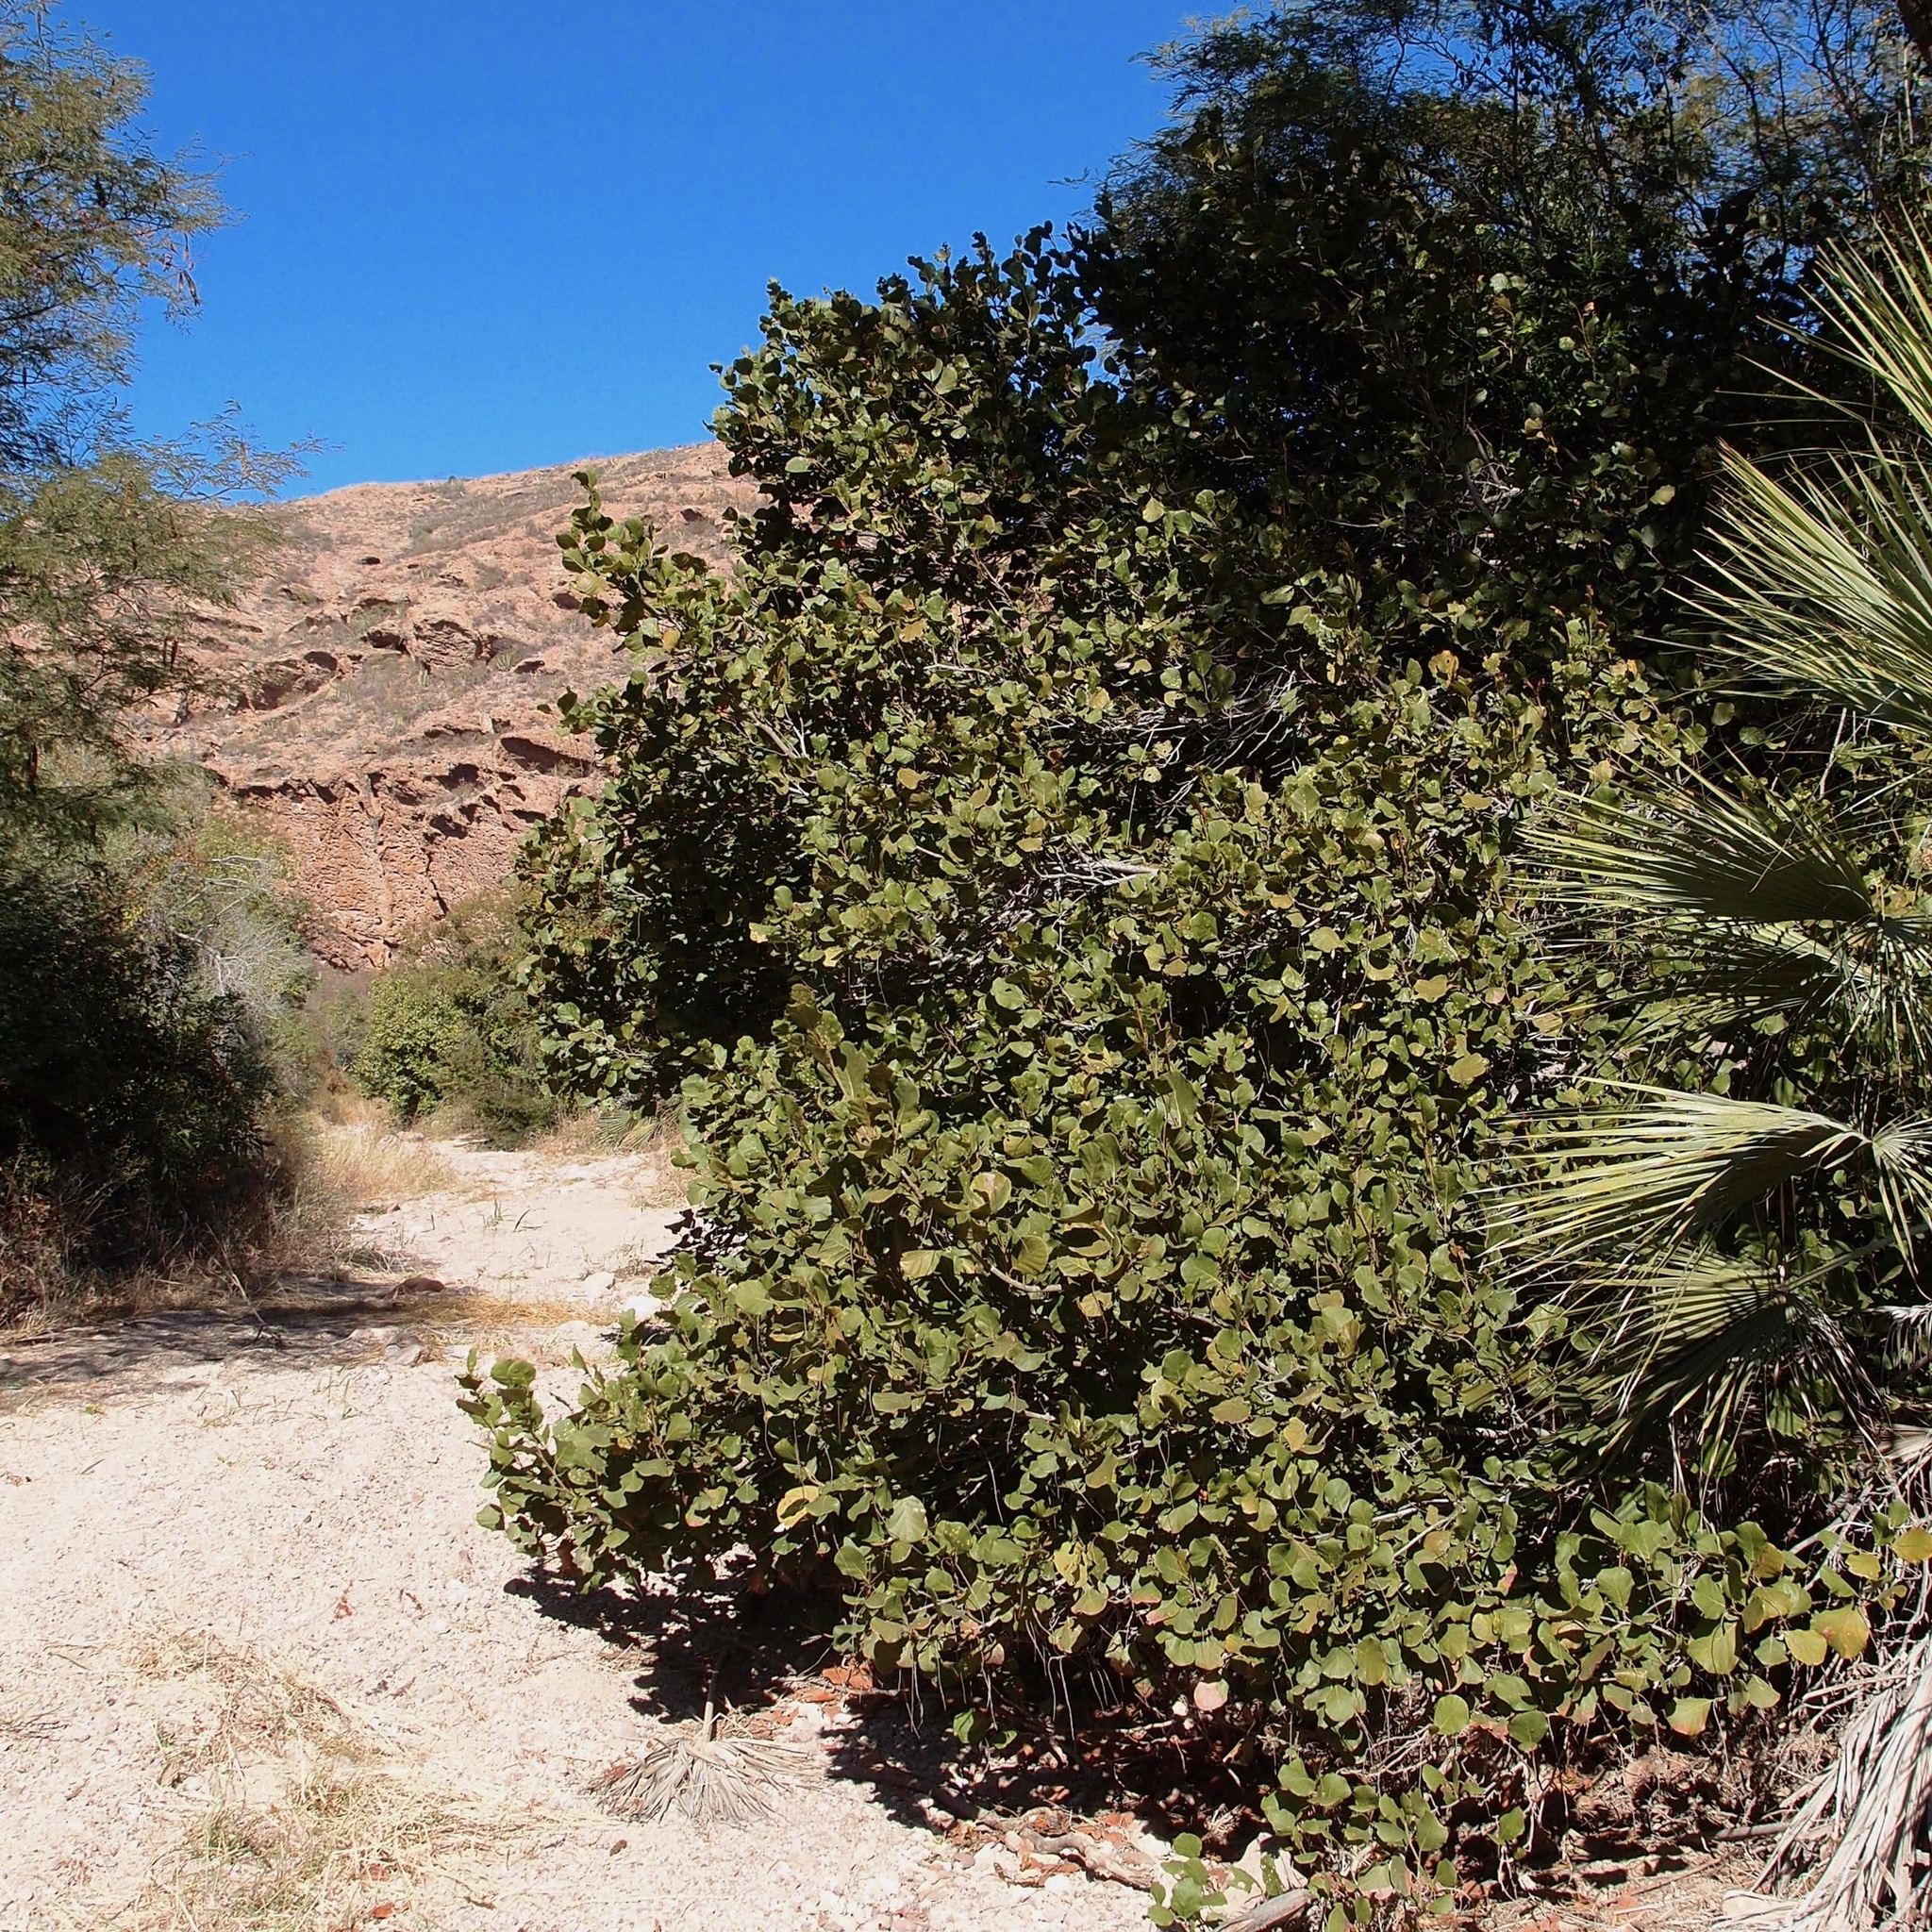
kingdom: Plantae
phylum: Tracheophyta
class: Magnoliopsida
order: Caryophyllales
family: Polygonaceae
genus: Coccoloba
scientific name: Coccoloba goldmanii
